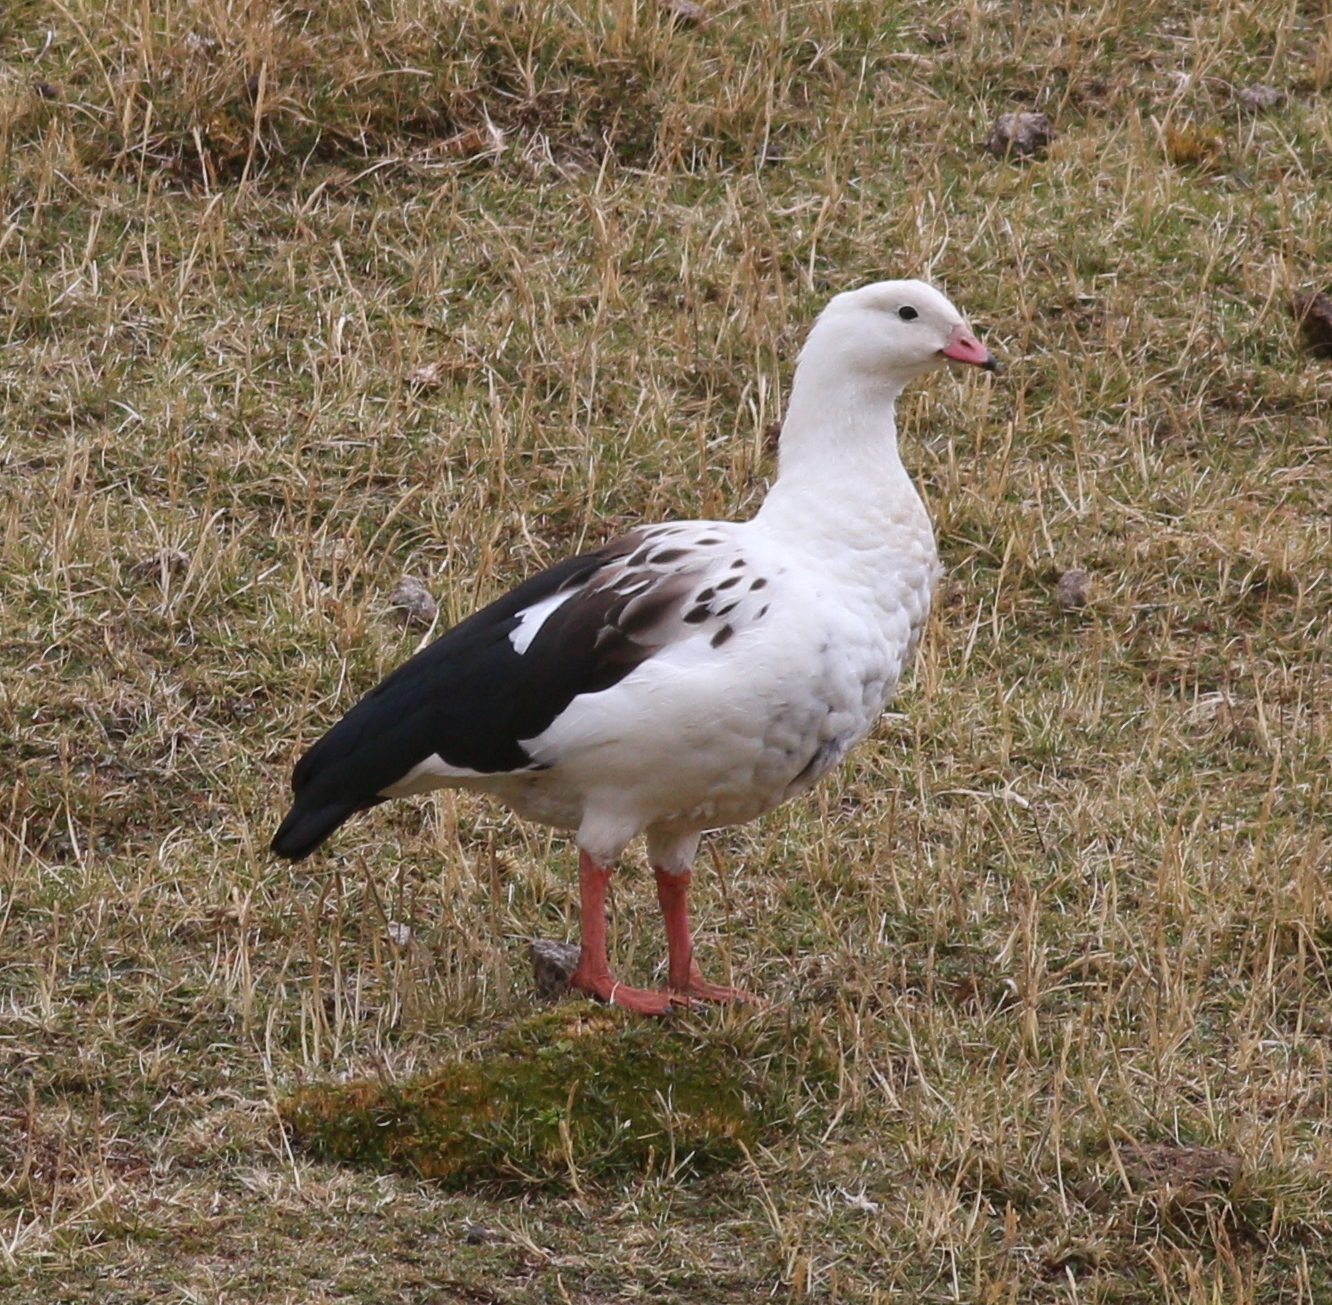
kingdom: Animalia
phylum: Chordata
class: Aves
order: Anseriformes
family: Anatidae
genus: Chloephaga
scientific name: Chloephaga melanoptera
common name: Andean goose
